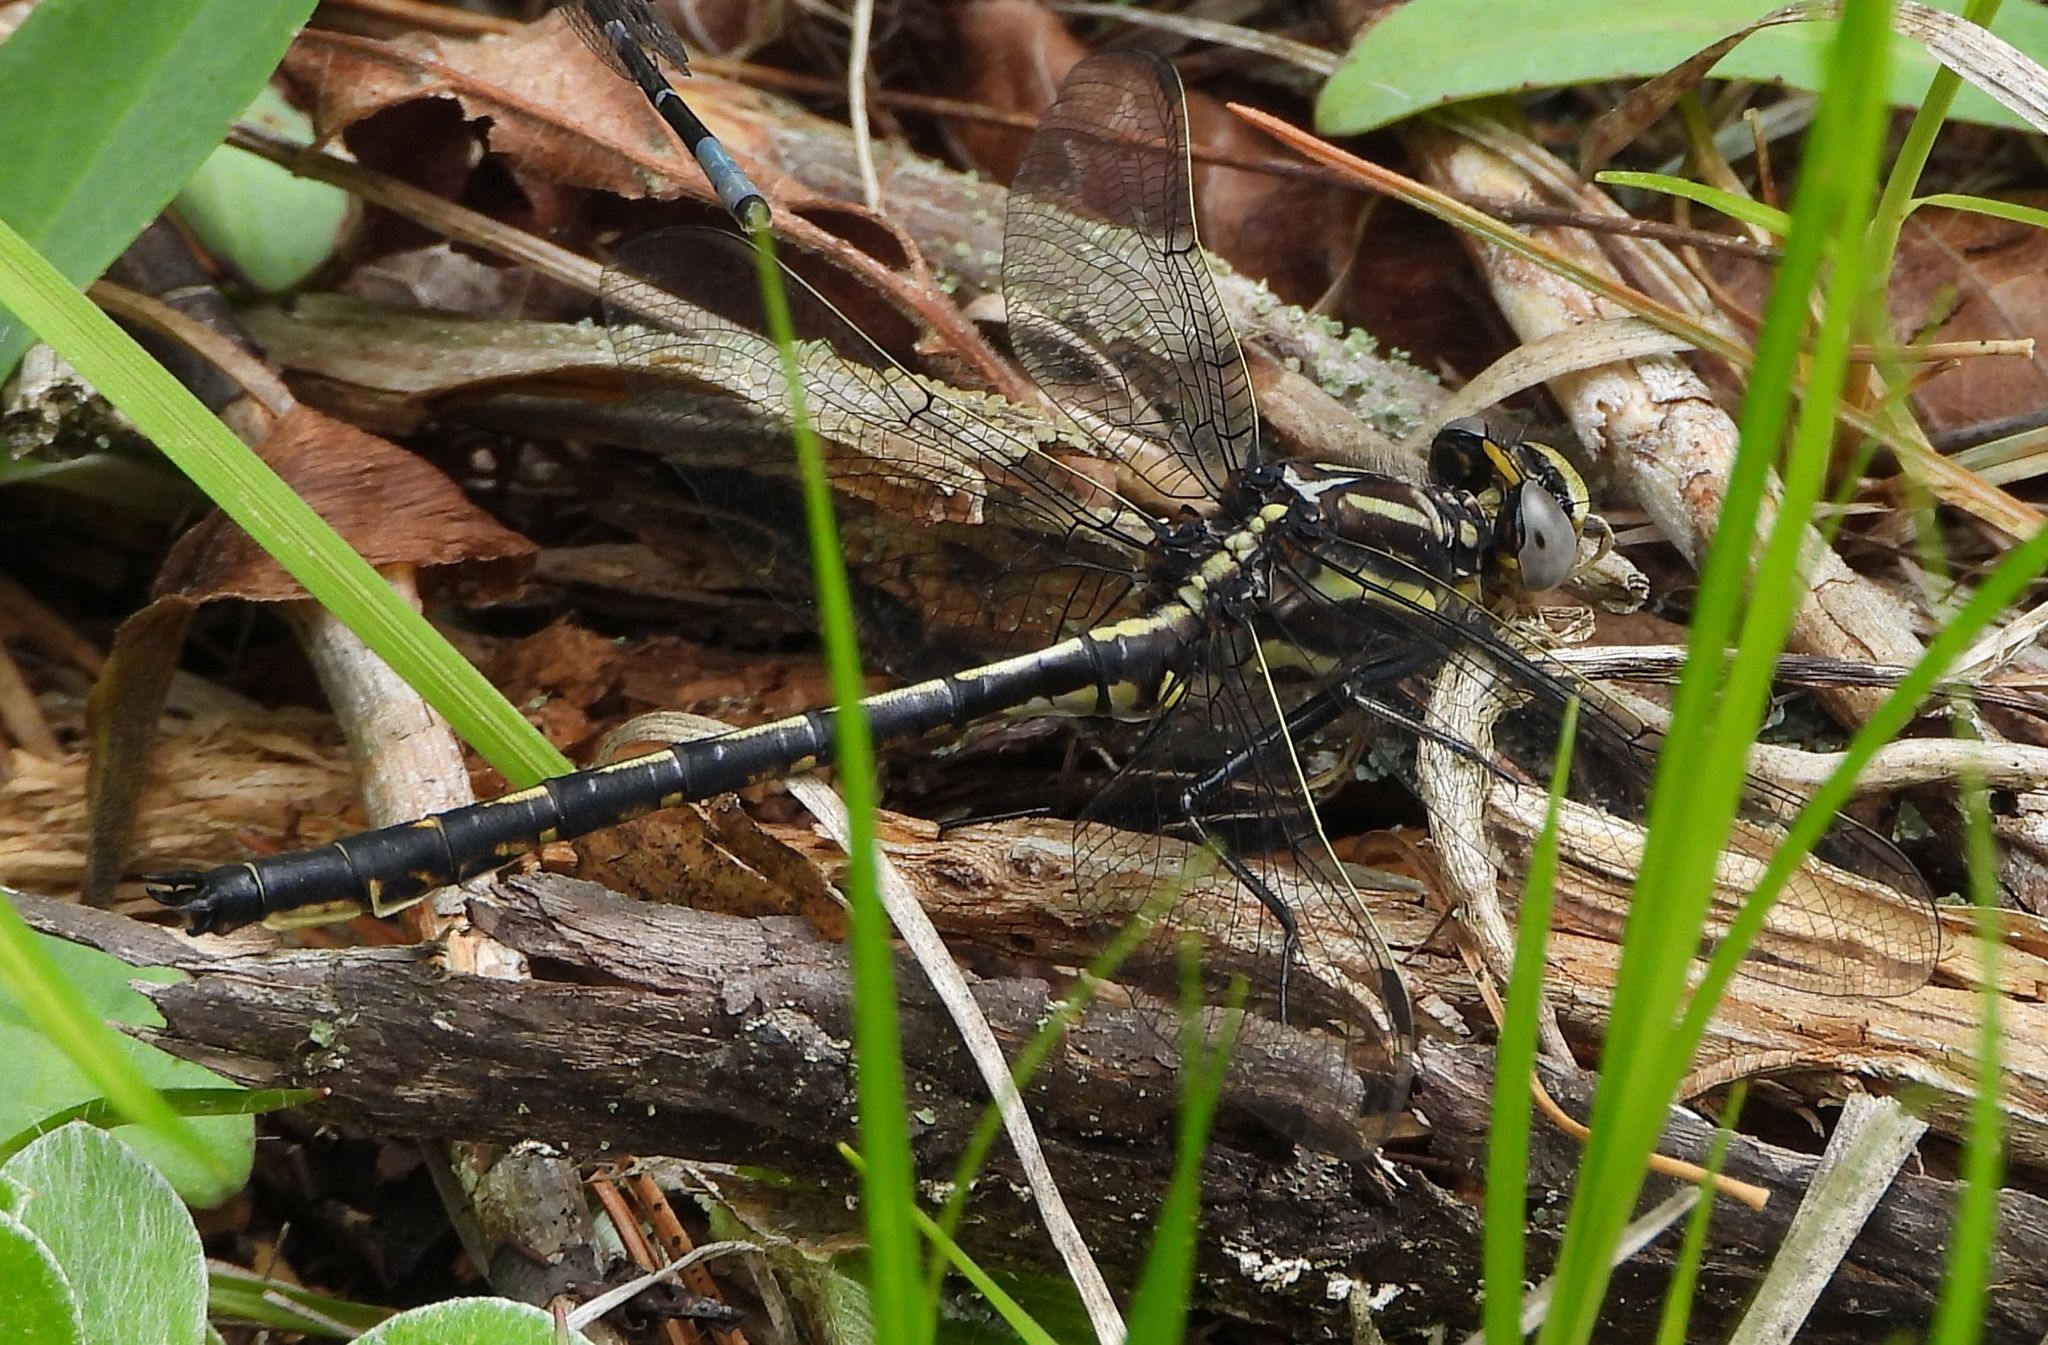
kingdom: Animalia
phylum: Arthropoda
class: Insecta
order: Odonata
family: Gomphidae
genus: Phanogomphus
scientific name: Phanogomphus spicatus
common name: Dusky clubtail
